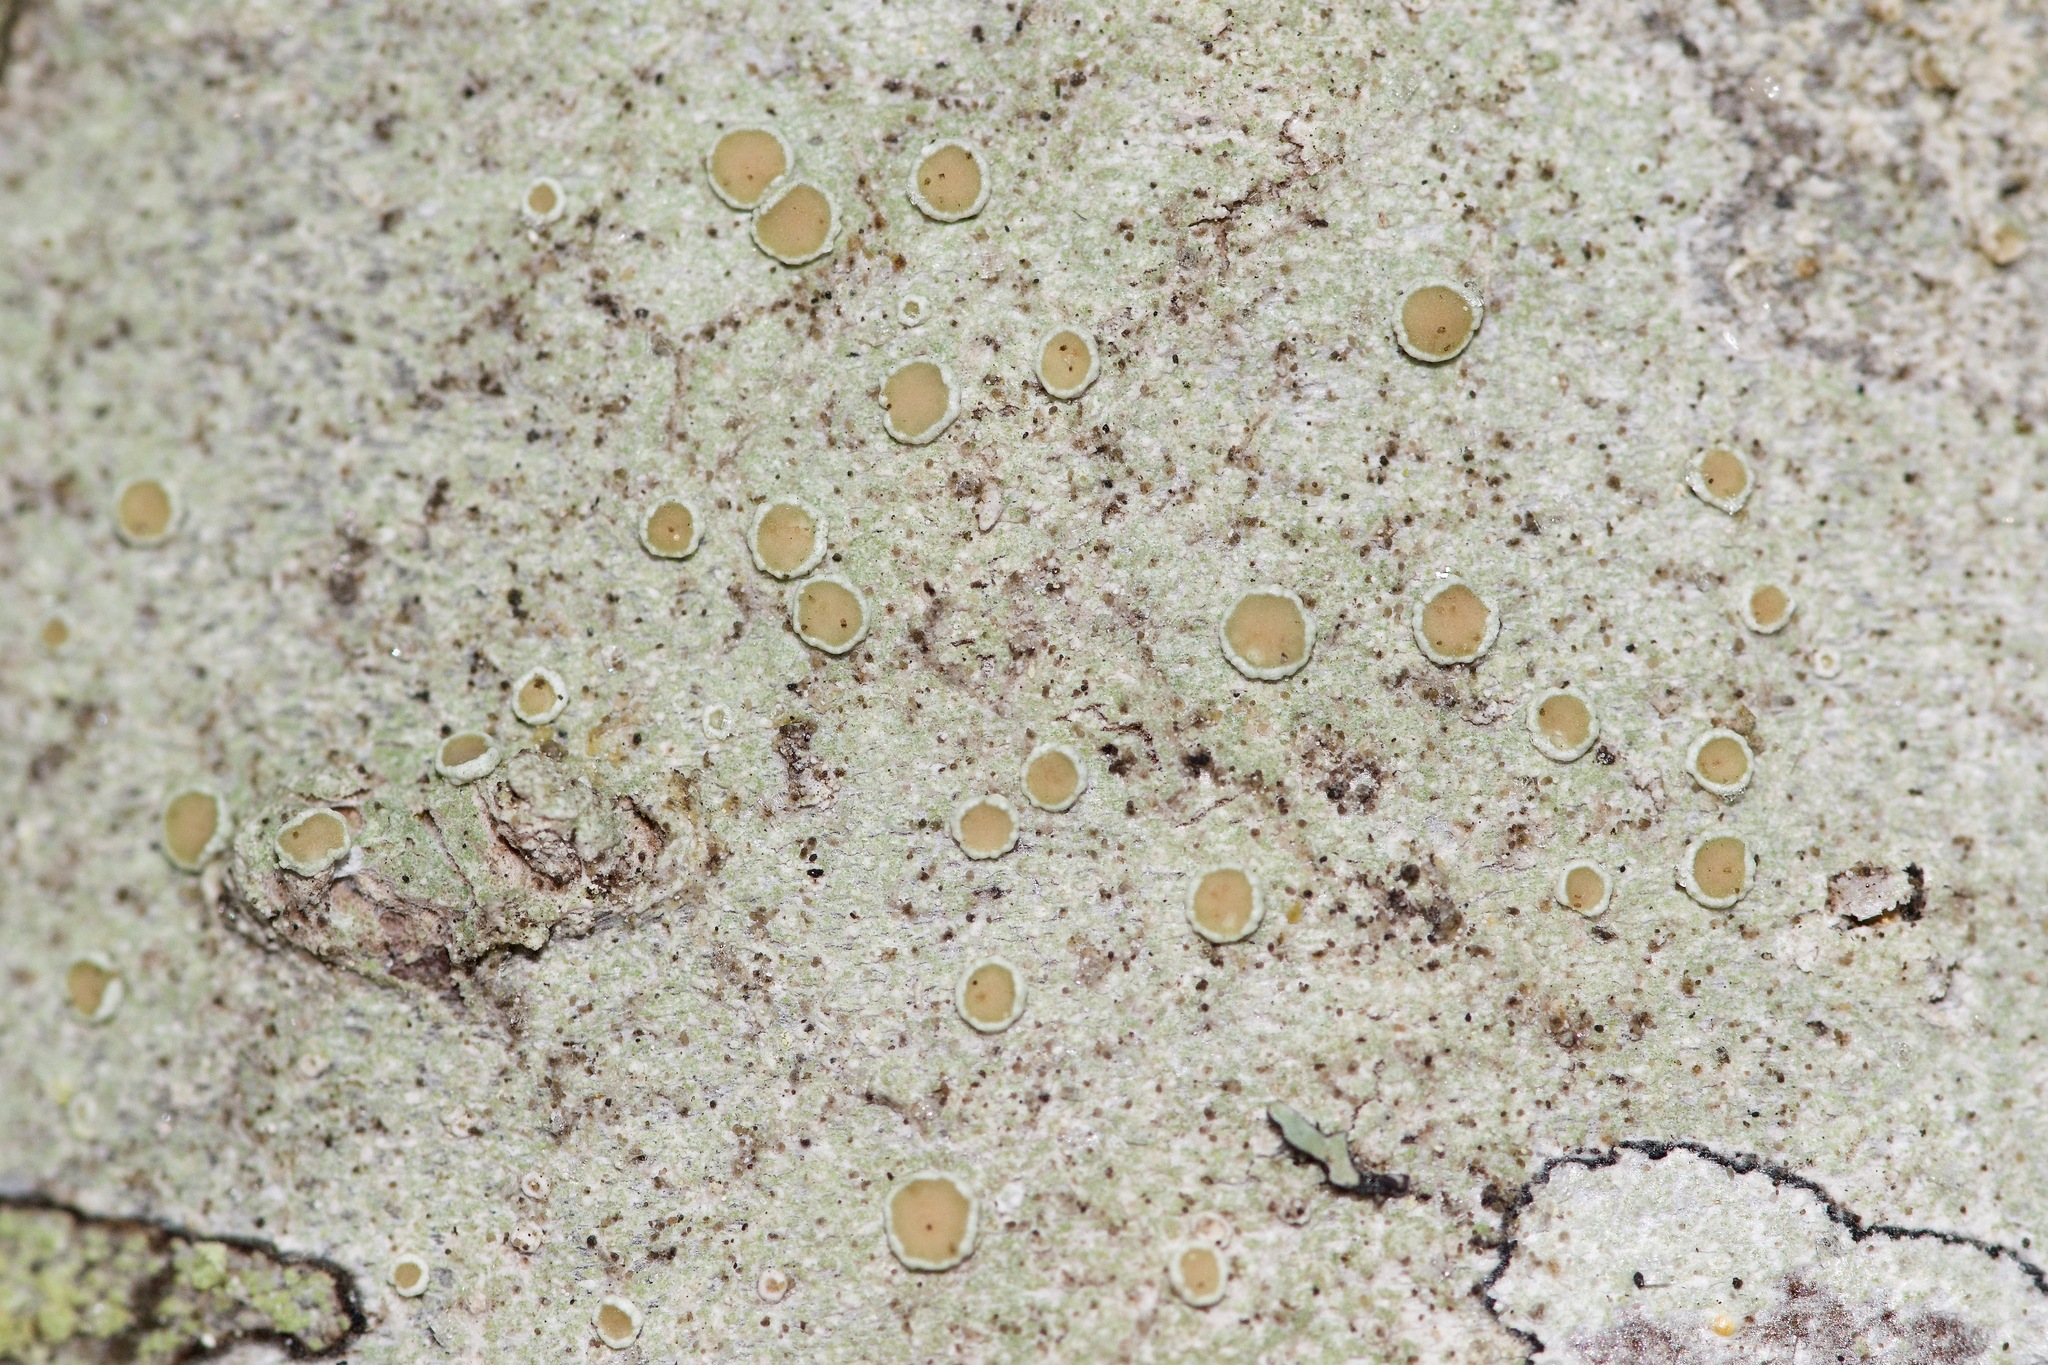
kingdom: Fungi
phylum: Ascomycota
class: Lecanoromycetes
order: Lecanorales
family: Lecanoraceae
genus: Lecanora
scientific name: Lecanora hybocarpa
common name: Bumpy rim-lichen
